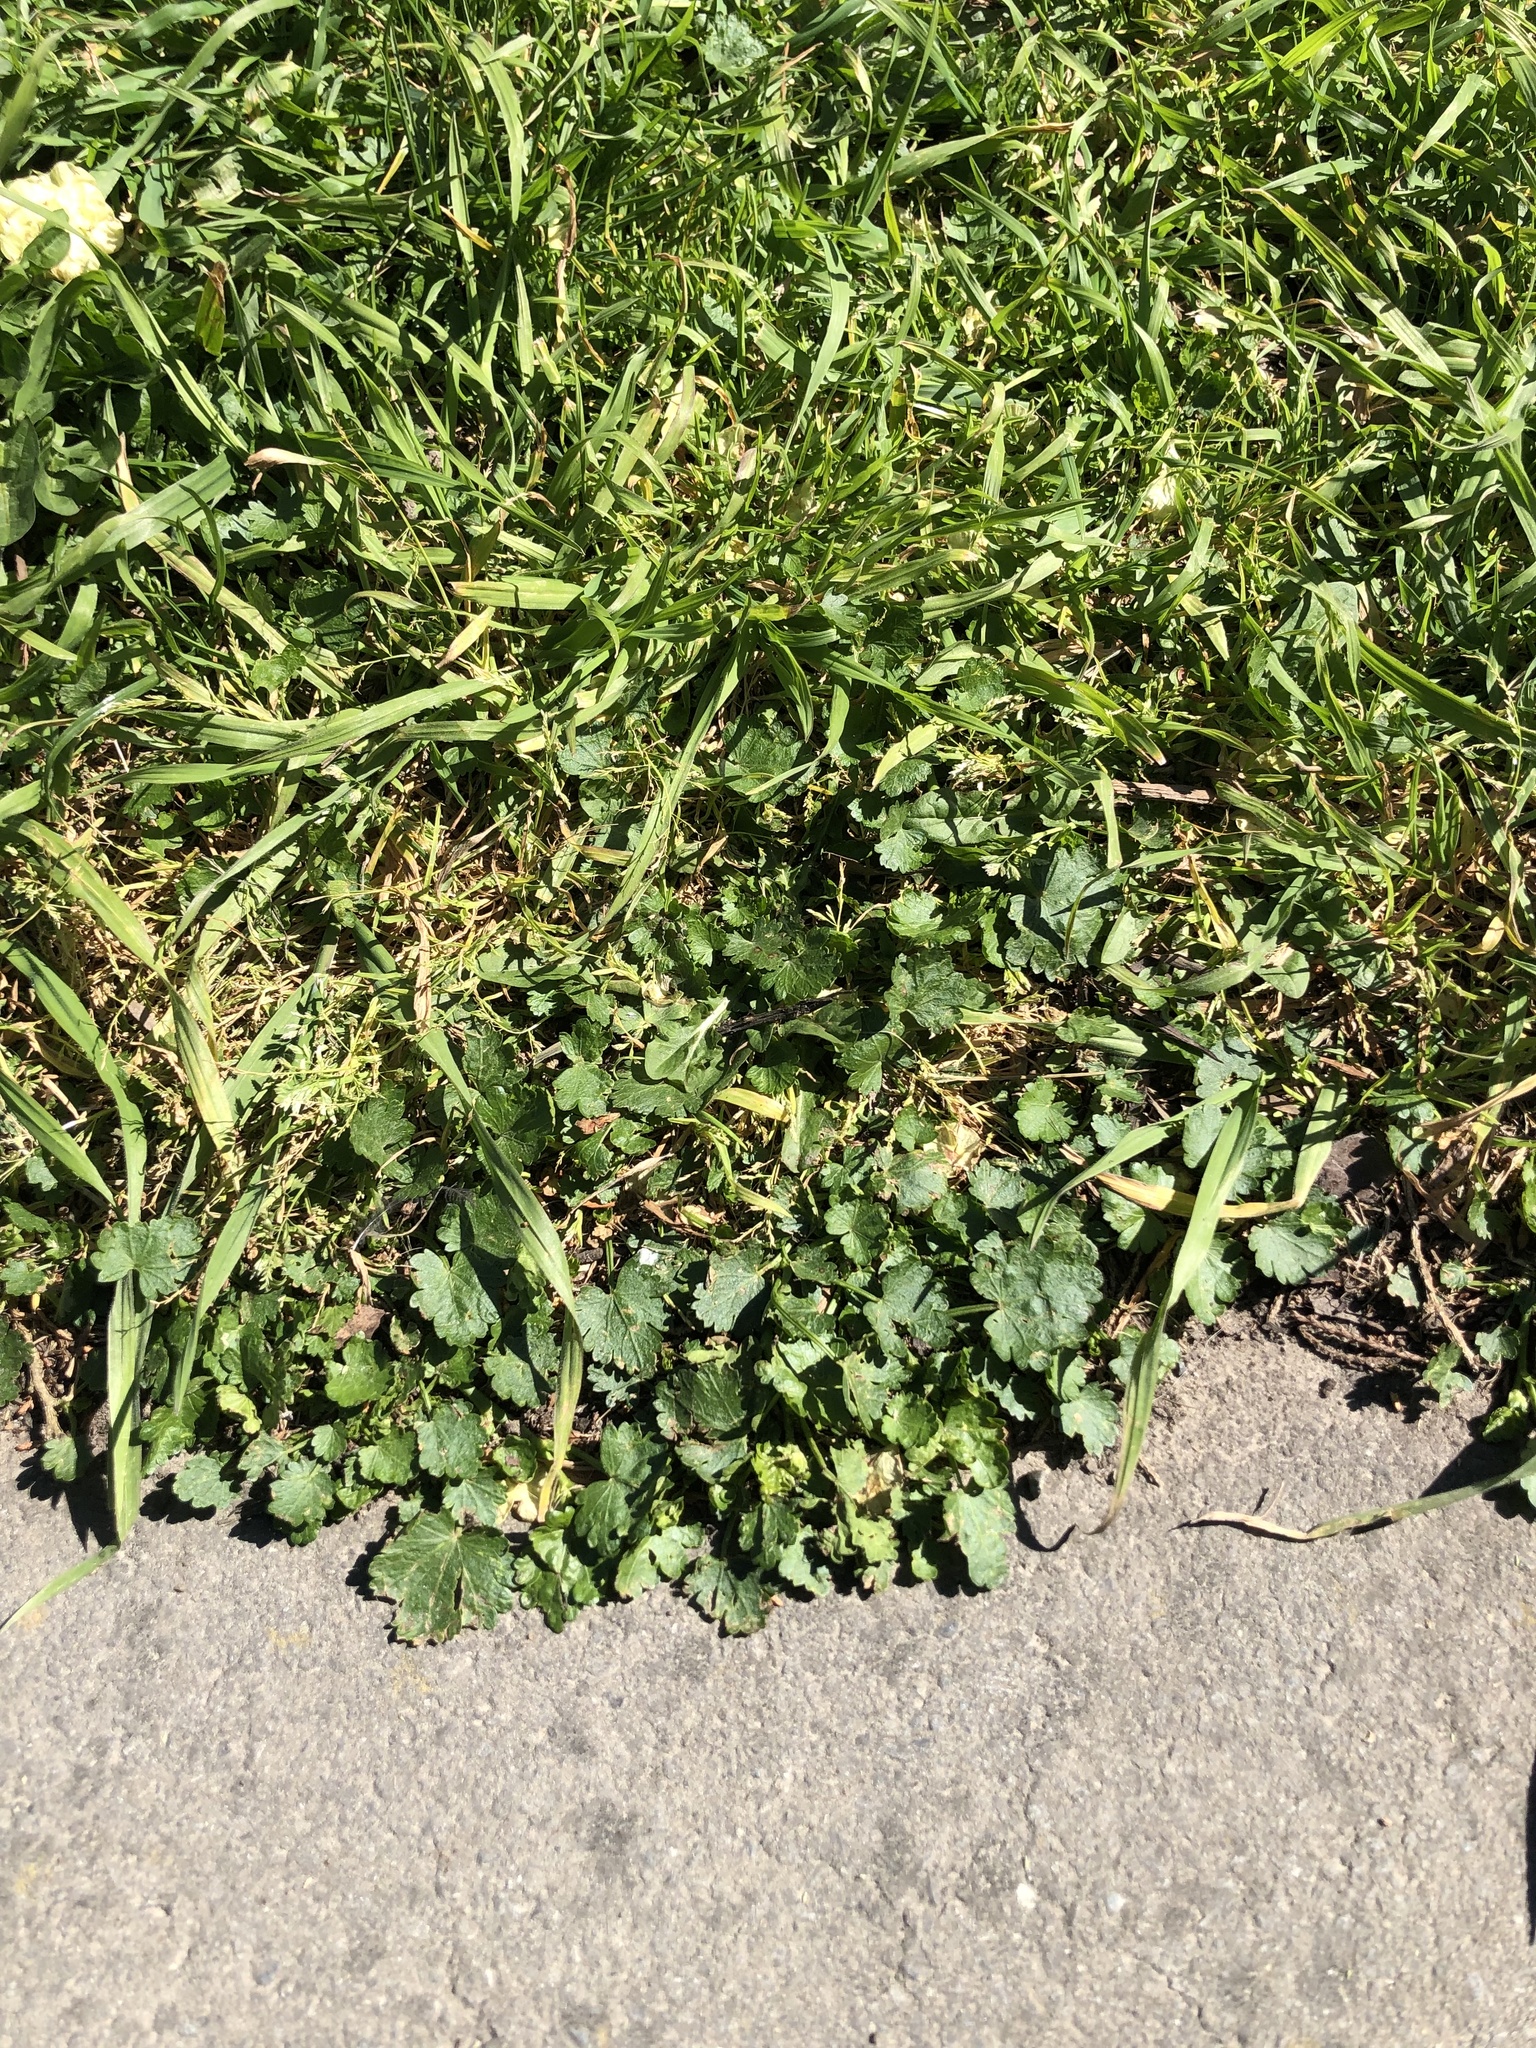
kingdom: Plantae
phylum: Tracheophyta
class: Magnoliopsida
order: Malvales
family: Malvaceae
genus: Modiola
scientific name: Modiola caroliniana
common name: Carolina bristlemallow
